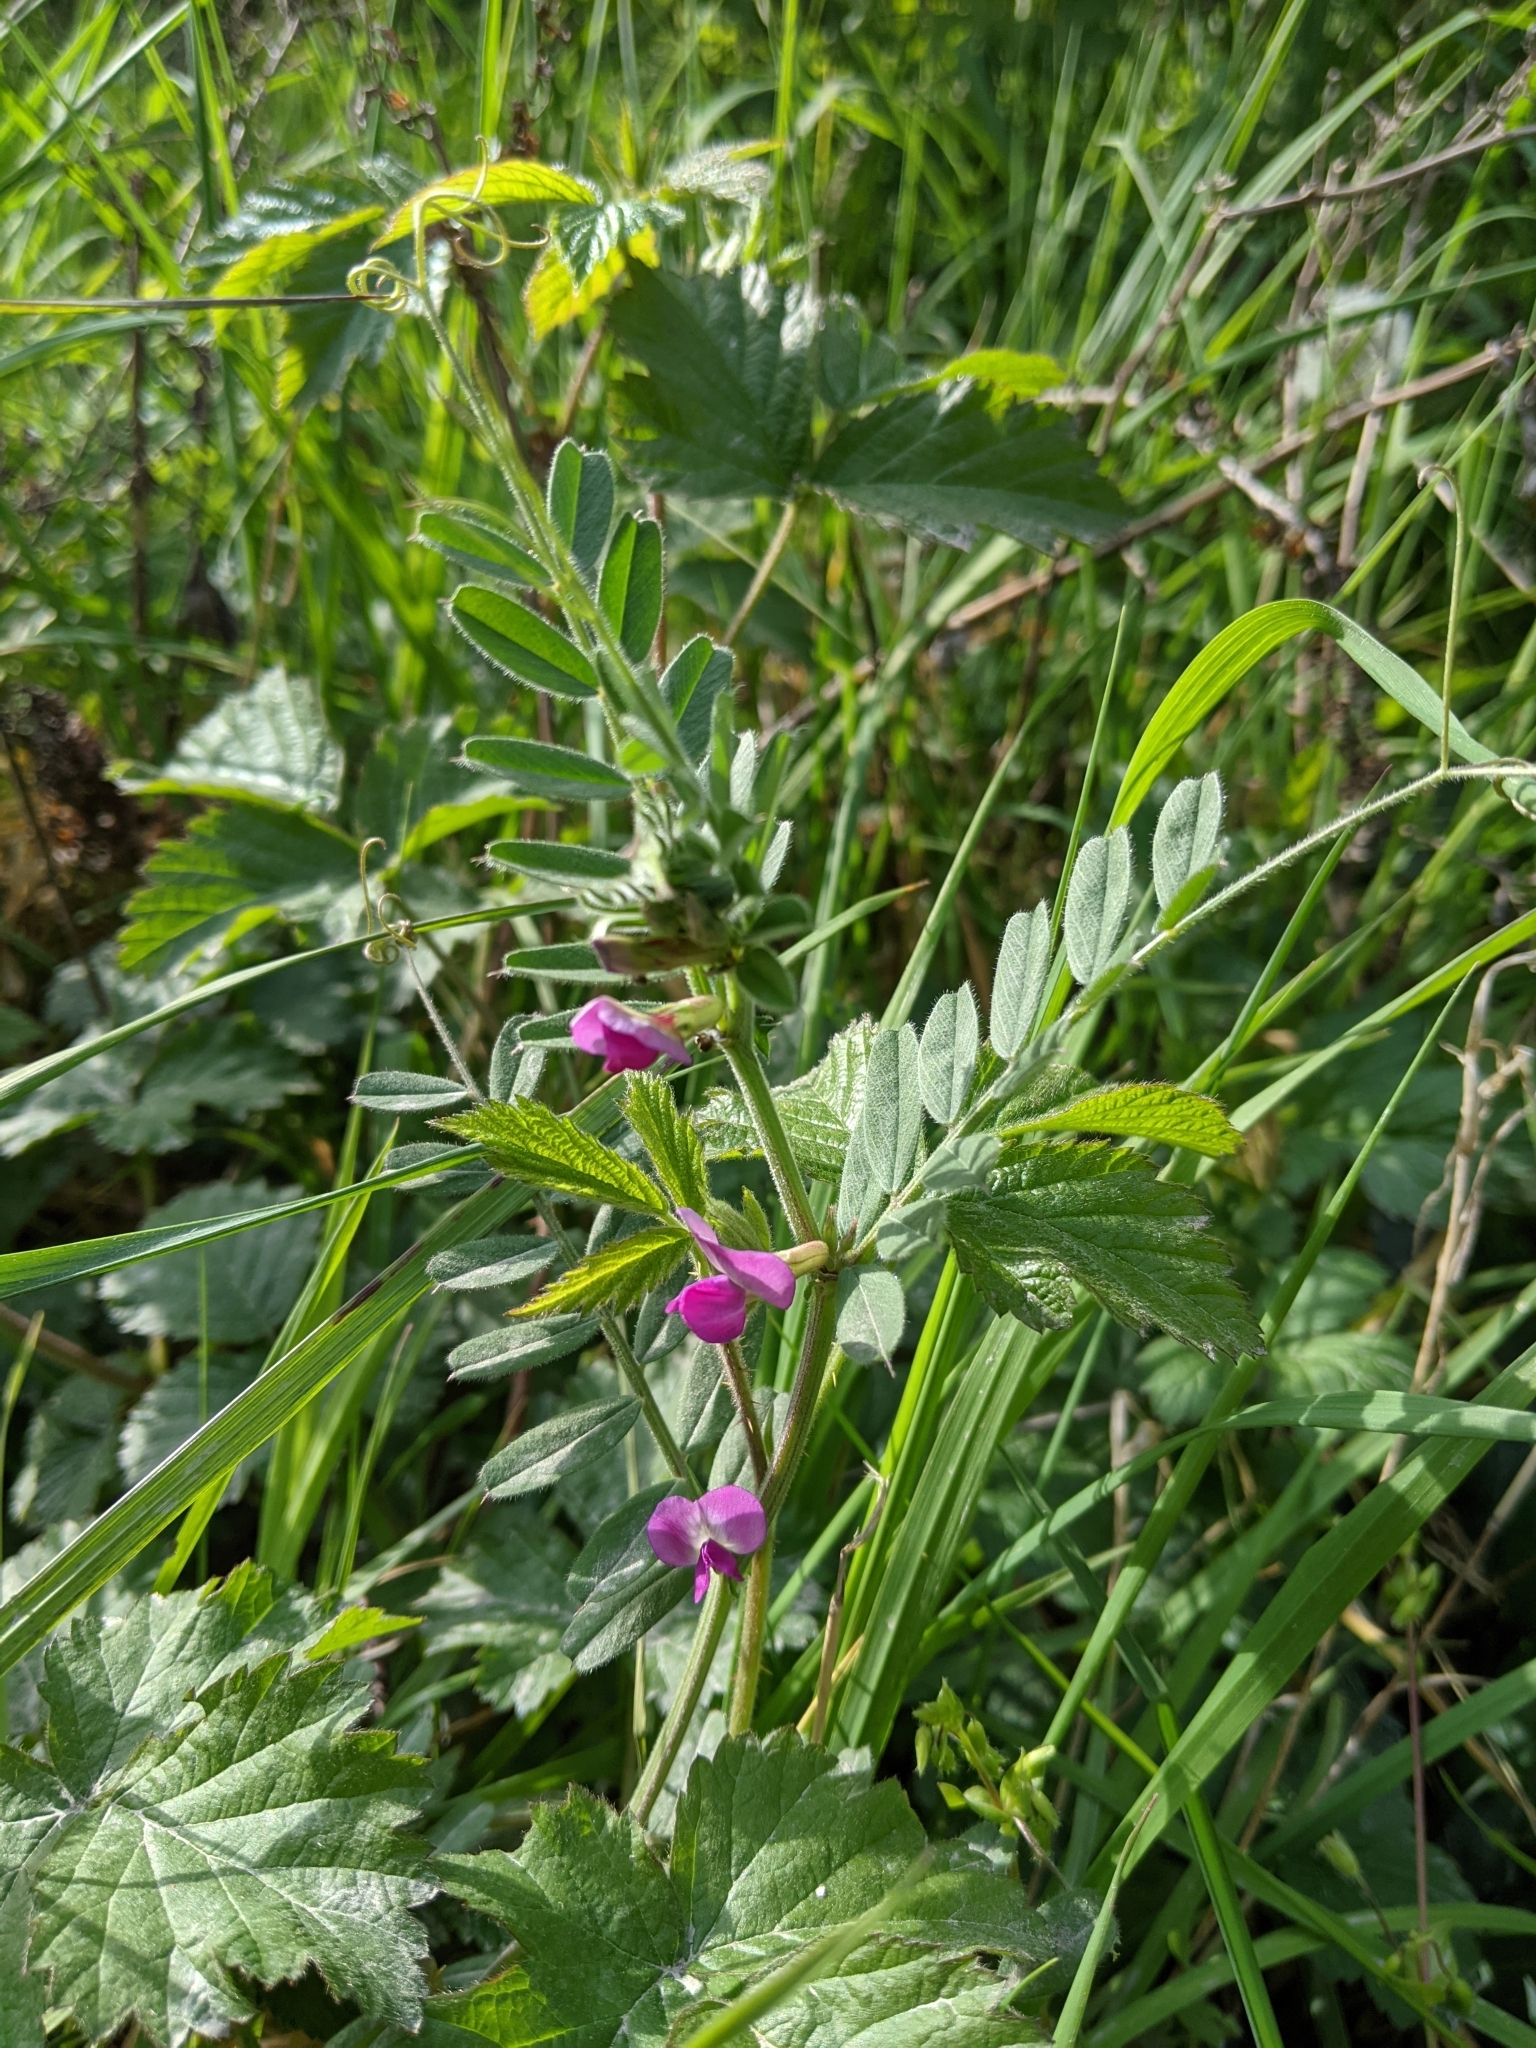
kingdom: Plantae
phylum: Tracheophyta
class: Magnoliopsida
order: Fabales
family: Fabaceae
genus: Vicia
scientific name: Vicia sativa
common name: Garden vetch
